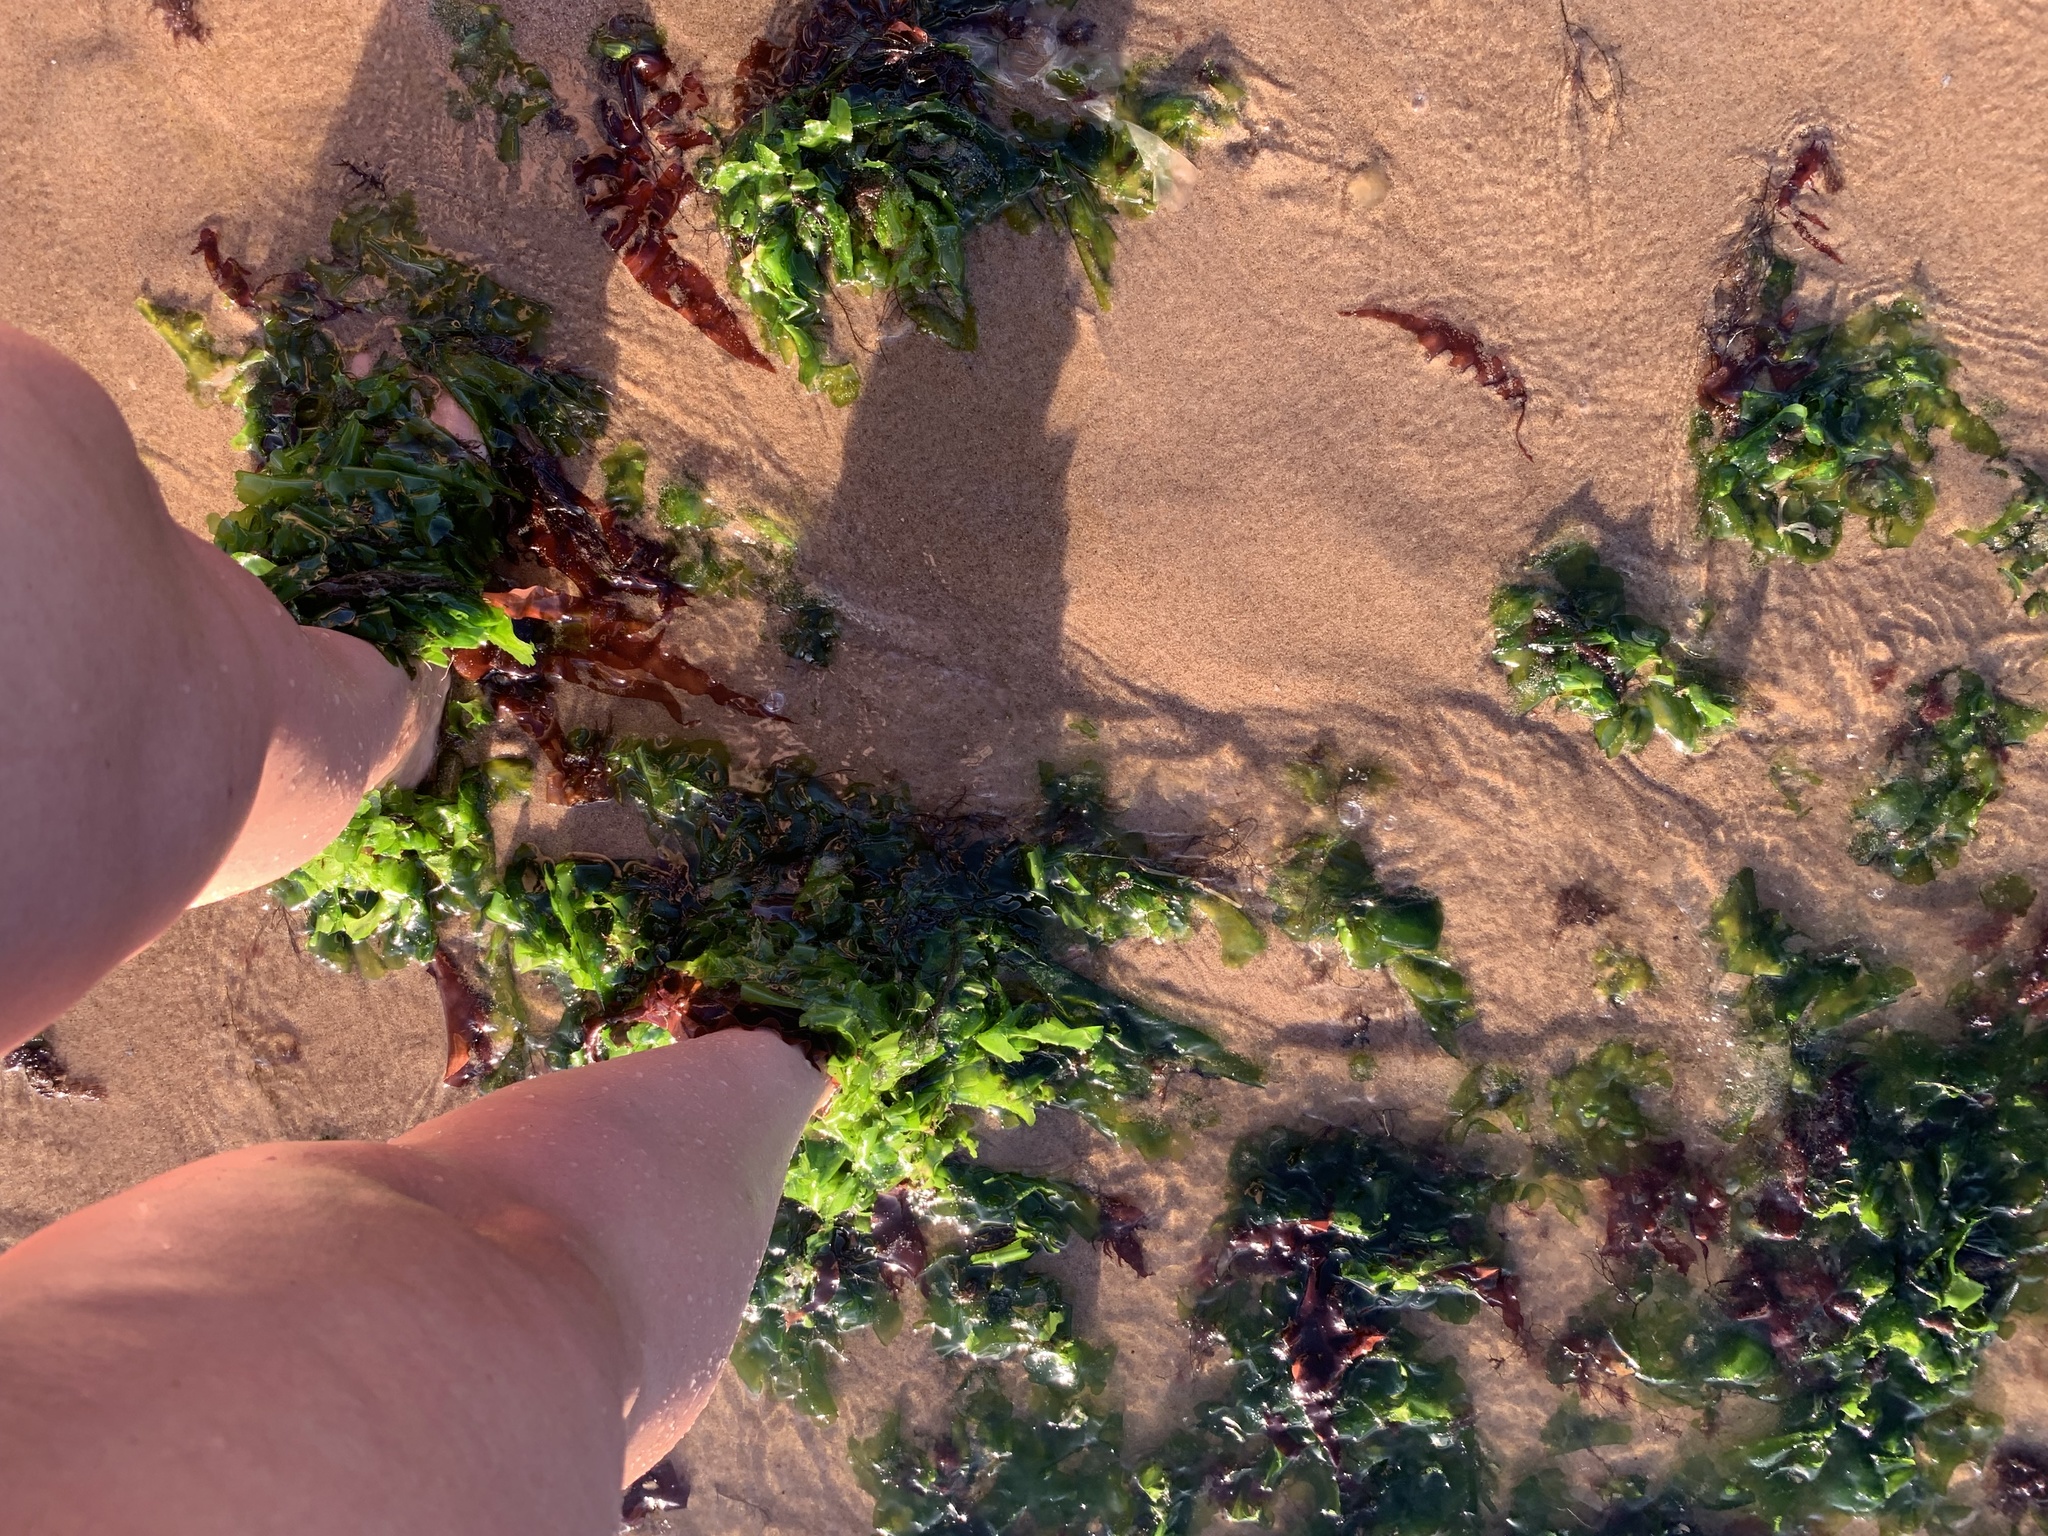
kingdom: Plantae
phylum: Chlorophyta
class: Ulvophyceae
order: Ulvales
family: Ulvaceae
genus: Ulva
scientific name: Ulva lactuca
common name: Sea lettuce
